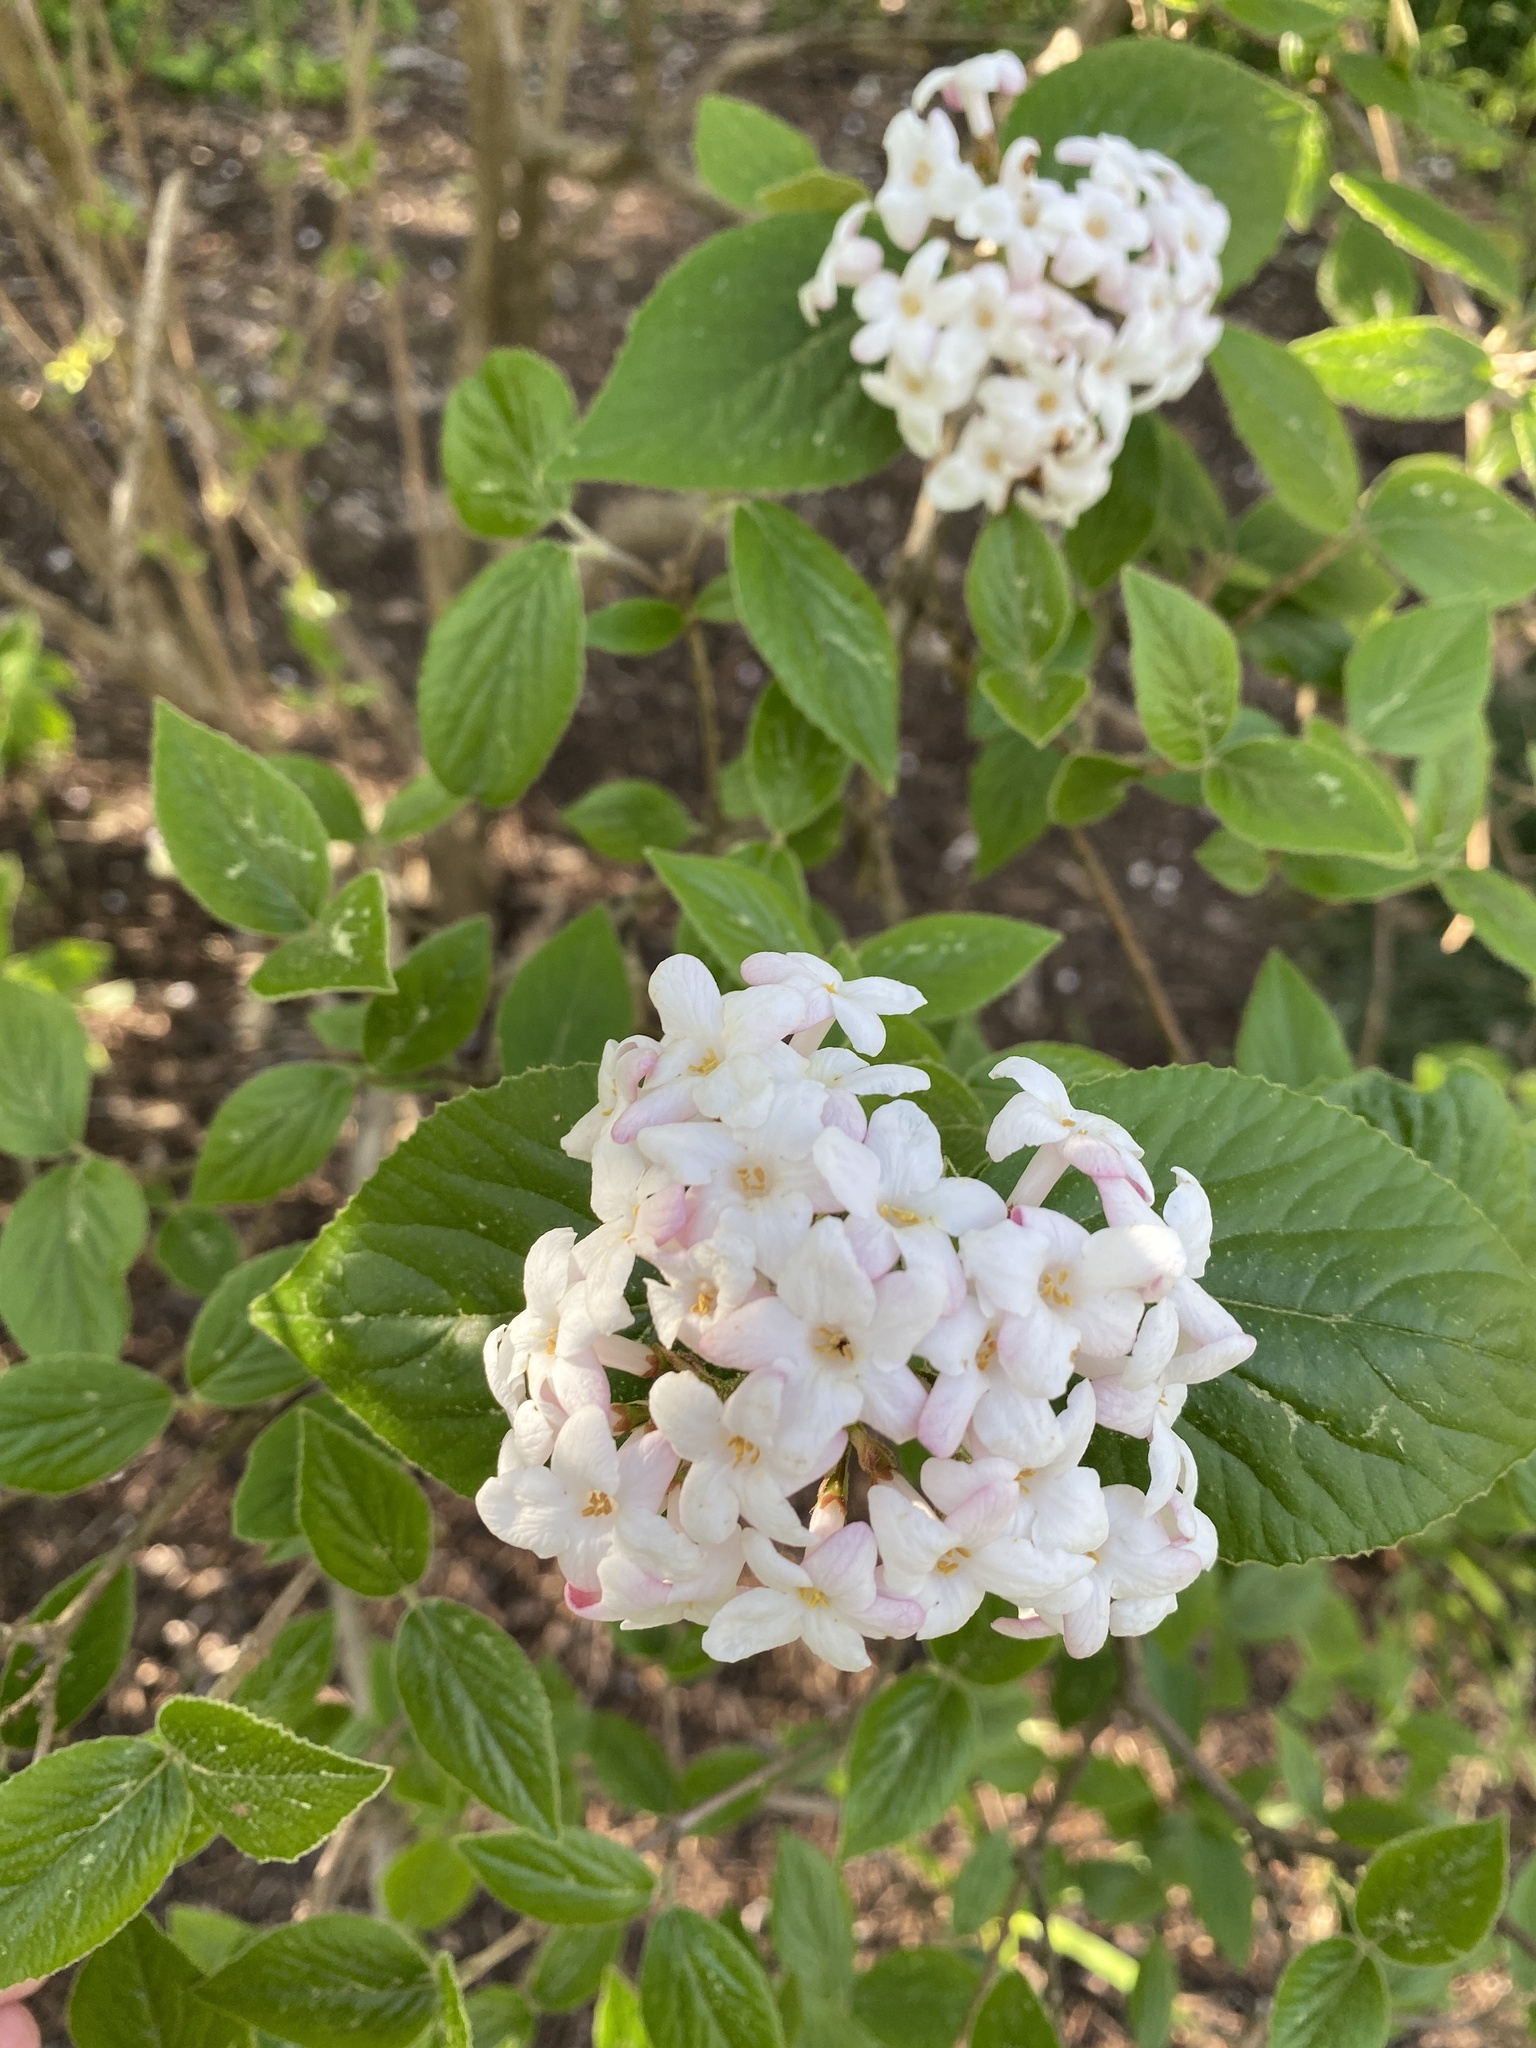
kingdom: Plantae
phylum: Tracheophyta
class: Magnoliopsida
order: Dipsacales
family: Viburnaceae
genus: Viburnum
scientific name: Viburnum carlesii
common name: Koreanspice viburnum
